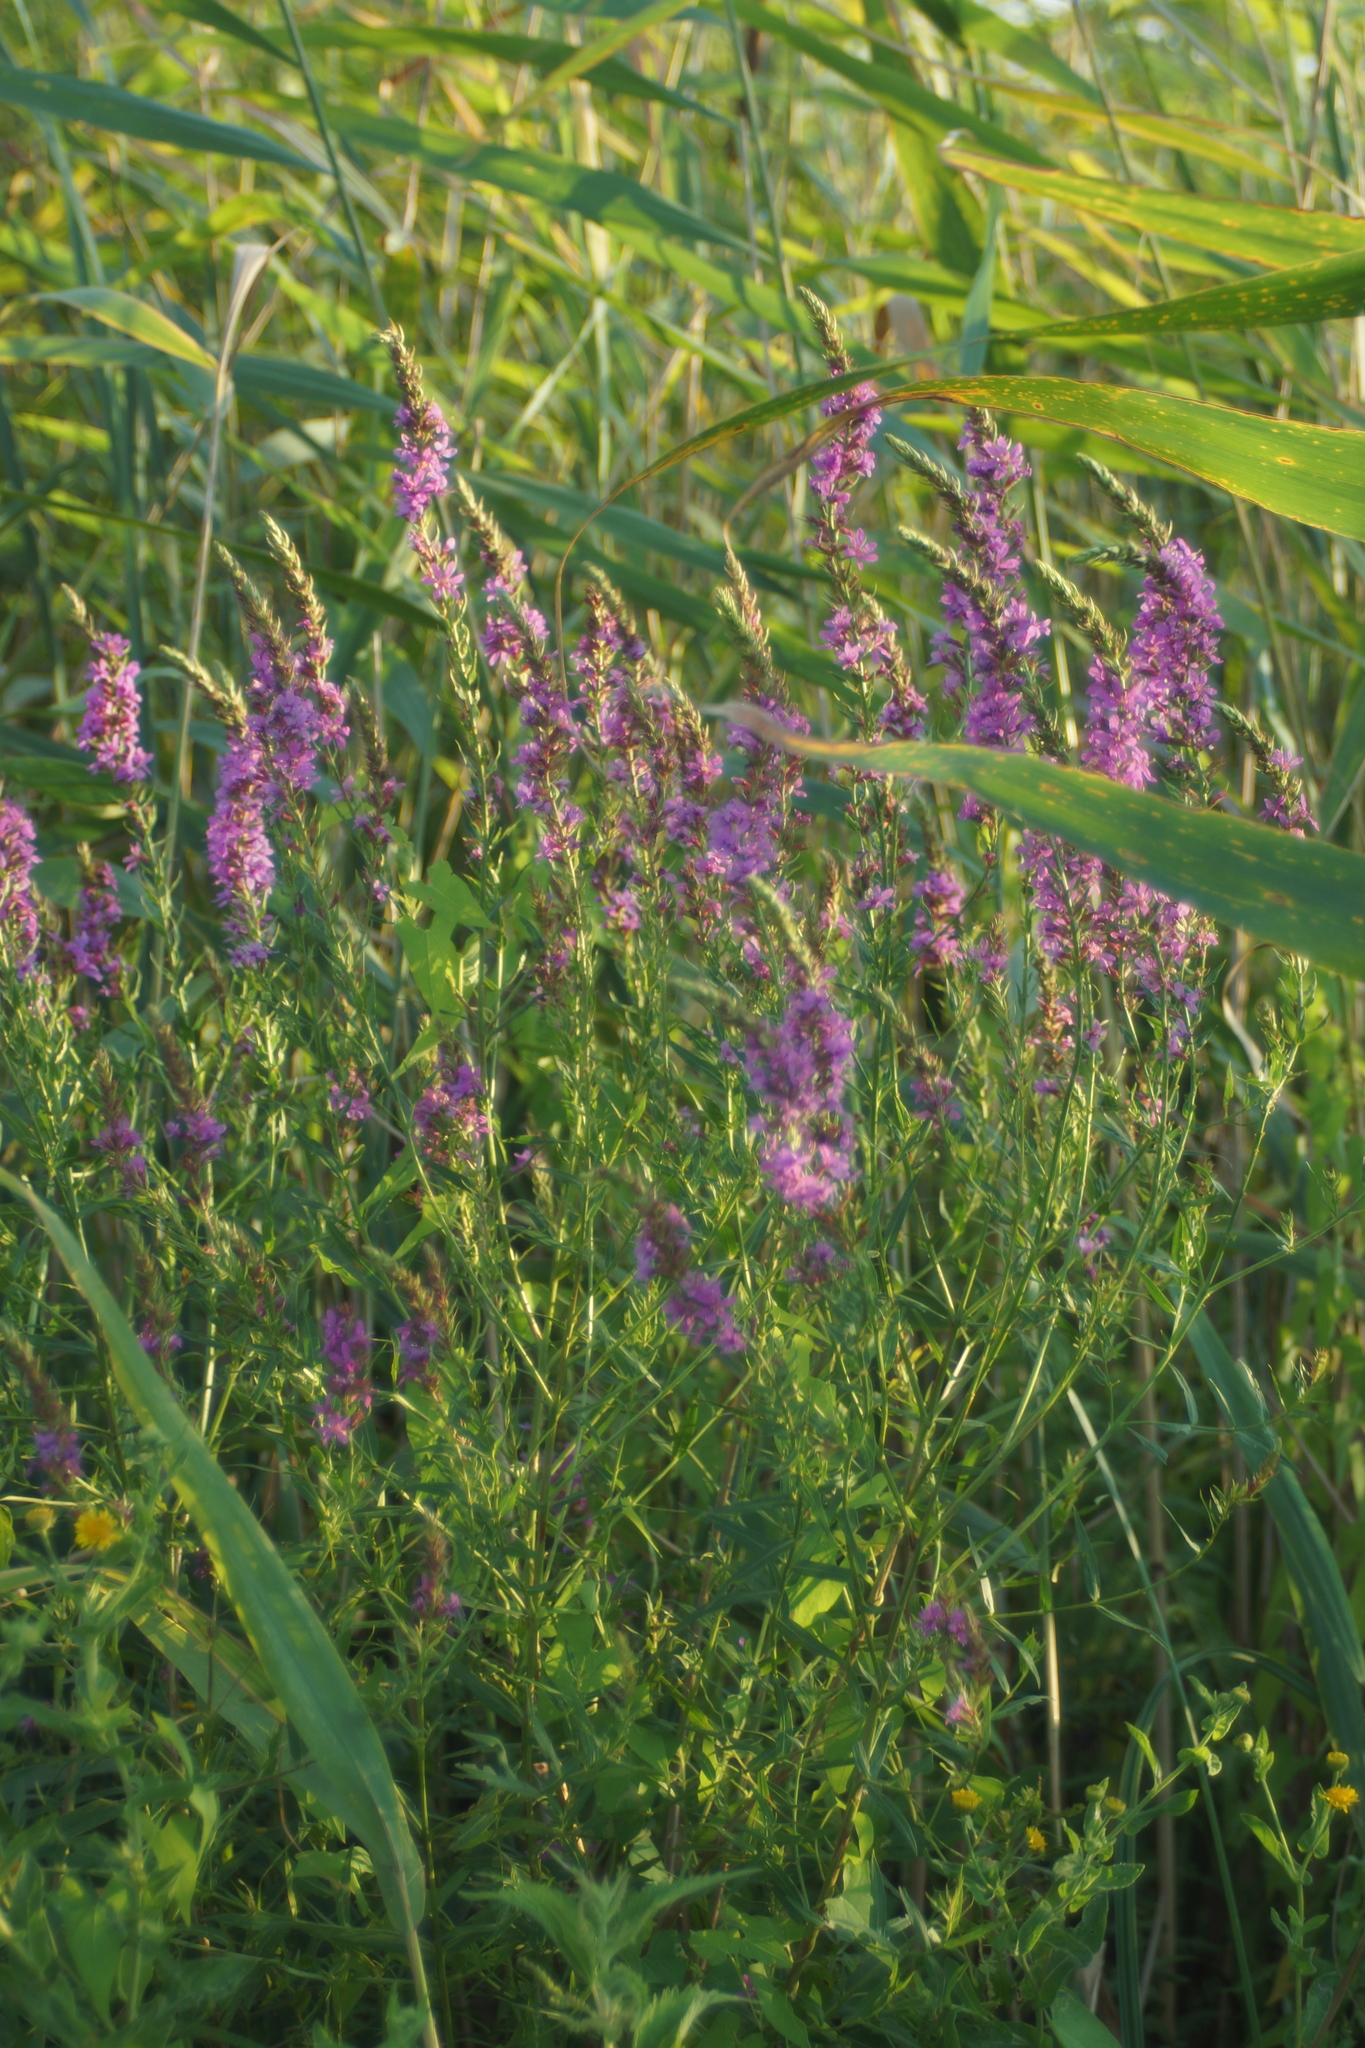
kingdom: Plantae
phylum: Tracheophyta
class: Magnoliopsida
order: Myrtales
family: Lythraceae
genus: Lythrum
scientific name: Lythrum salicaria
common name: Purple loosestrife
